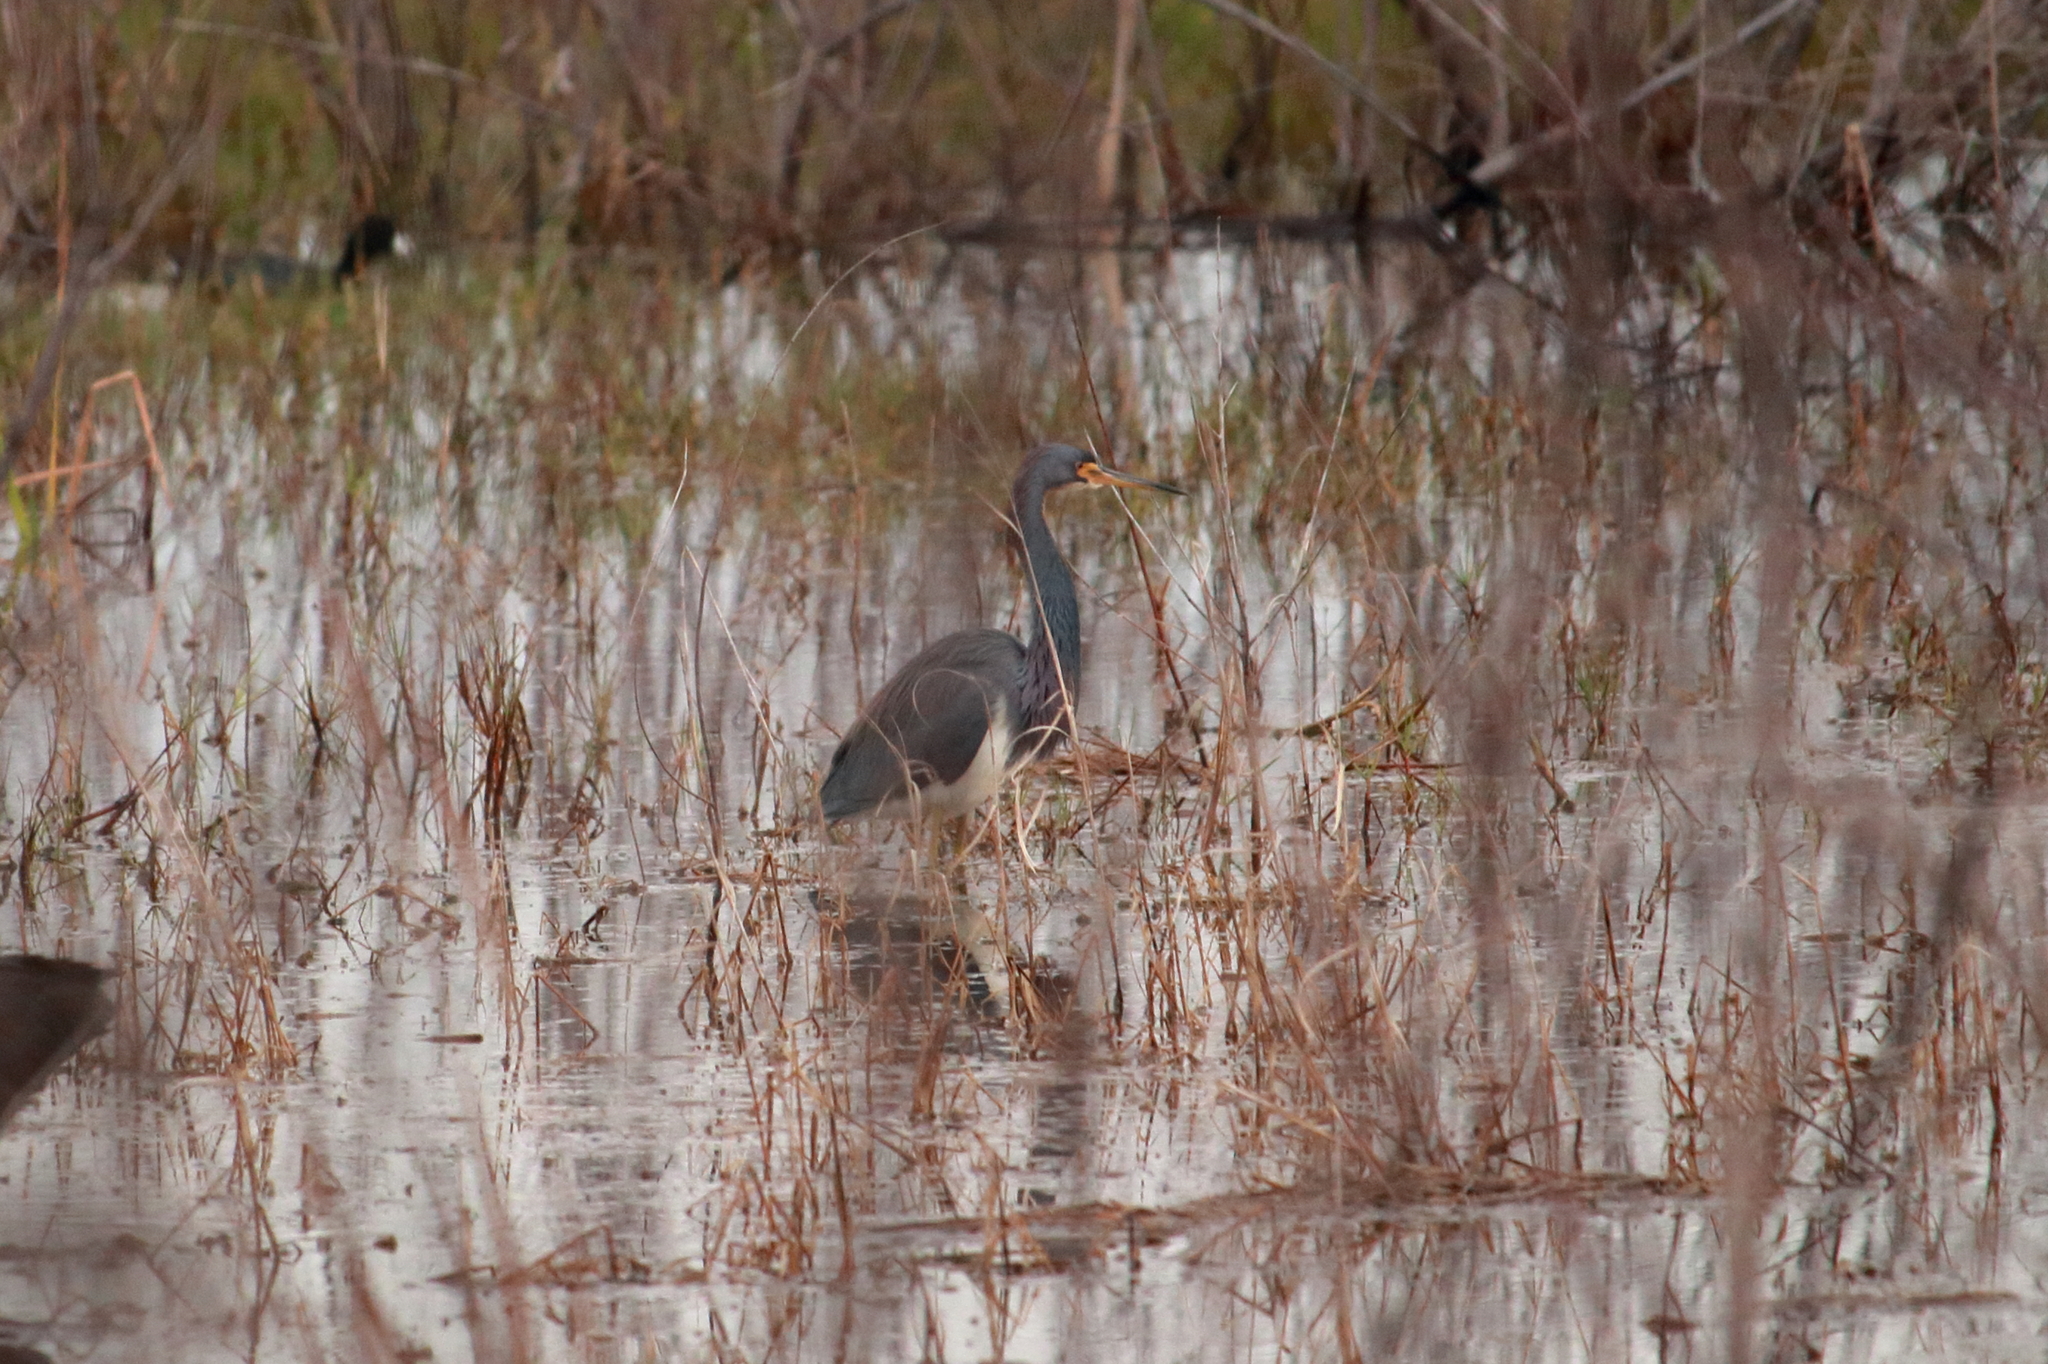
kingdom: Animalia
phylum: Chordata
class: Aves
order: Pelecaniformes
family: Ardeidae
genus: Egretta
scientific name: Egretta tricolor
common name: Tricolored heron
